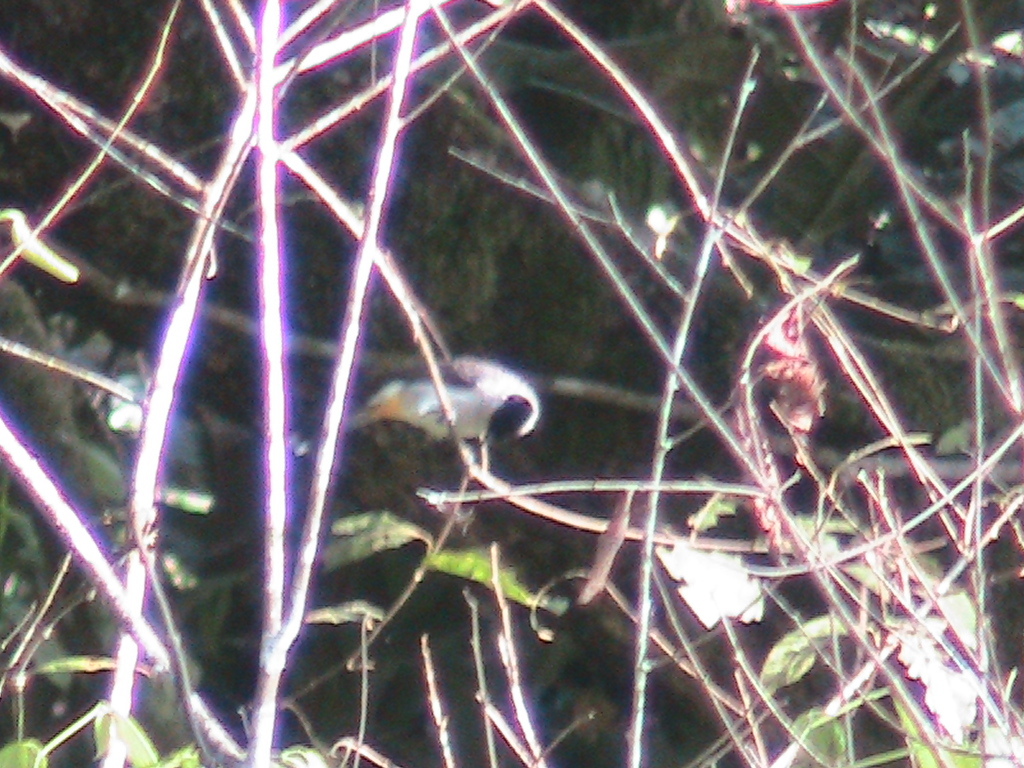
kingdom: Animalia
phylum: Chordata
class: Aves
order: Passeriformes
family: Pycnonotidae
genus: Pycnonotus
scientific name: Pycnonotus aurigaster
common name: Sooty-headed bulbul
